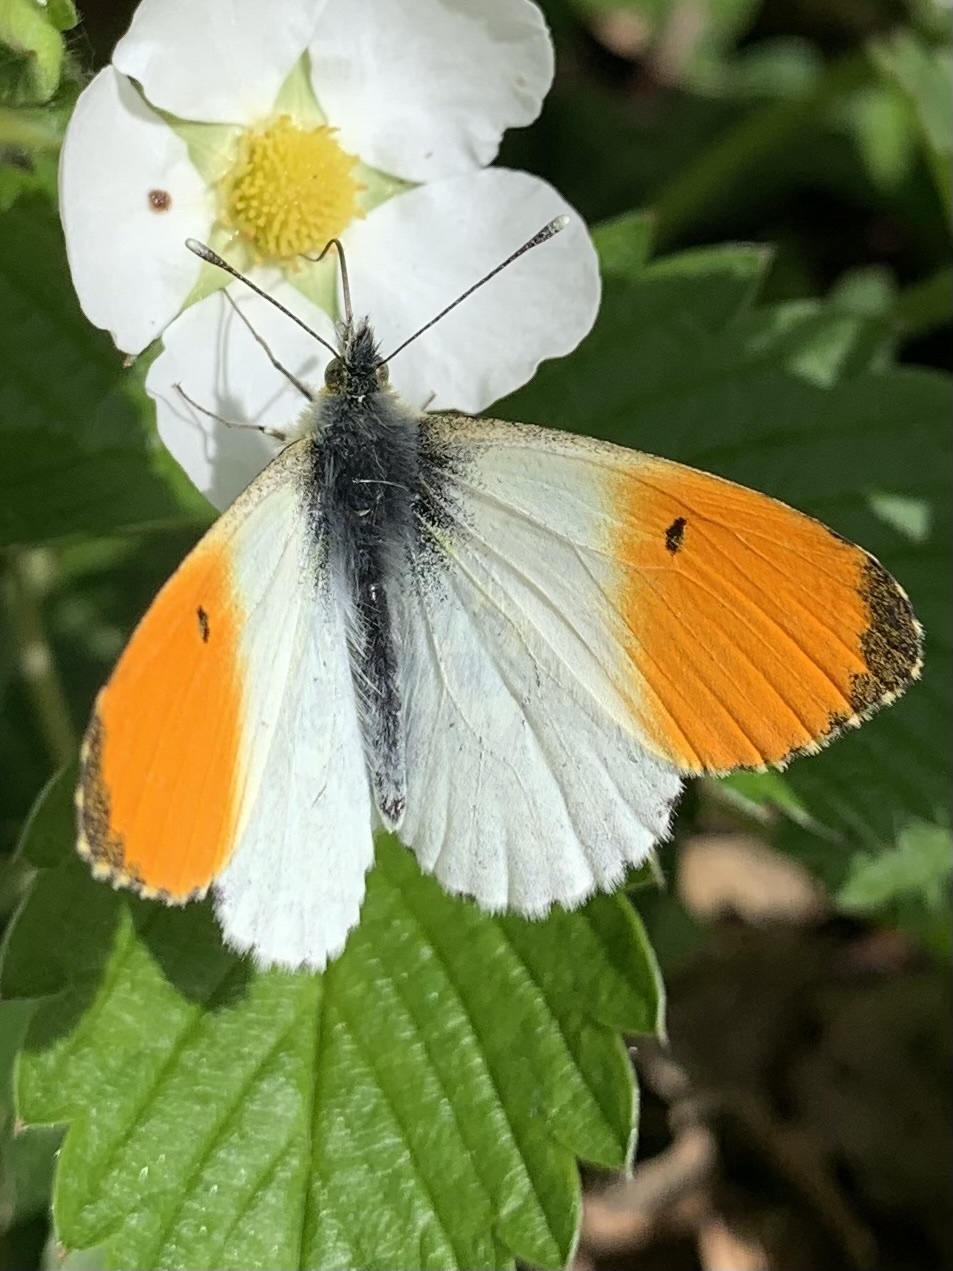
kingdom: Animalia
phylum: Arthropoda
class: Insecta
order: Lepidoptera
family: Pieridae
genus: Anthocharis
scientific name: Anthocharis cardamines
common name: Orange-tip
